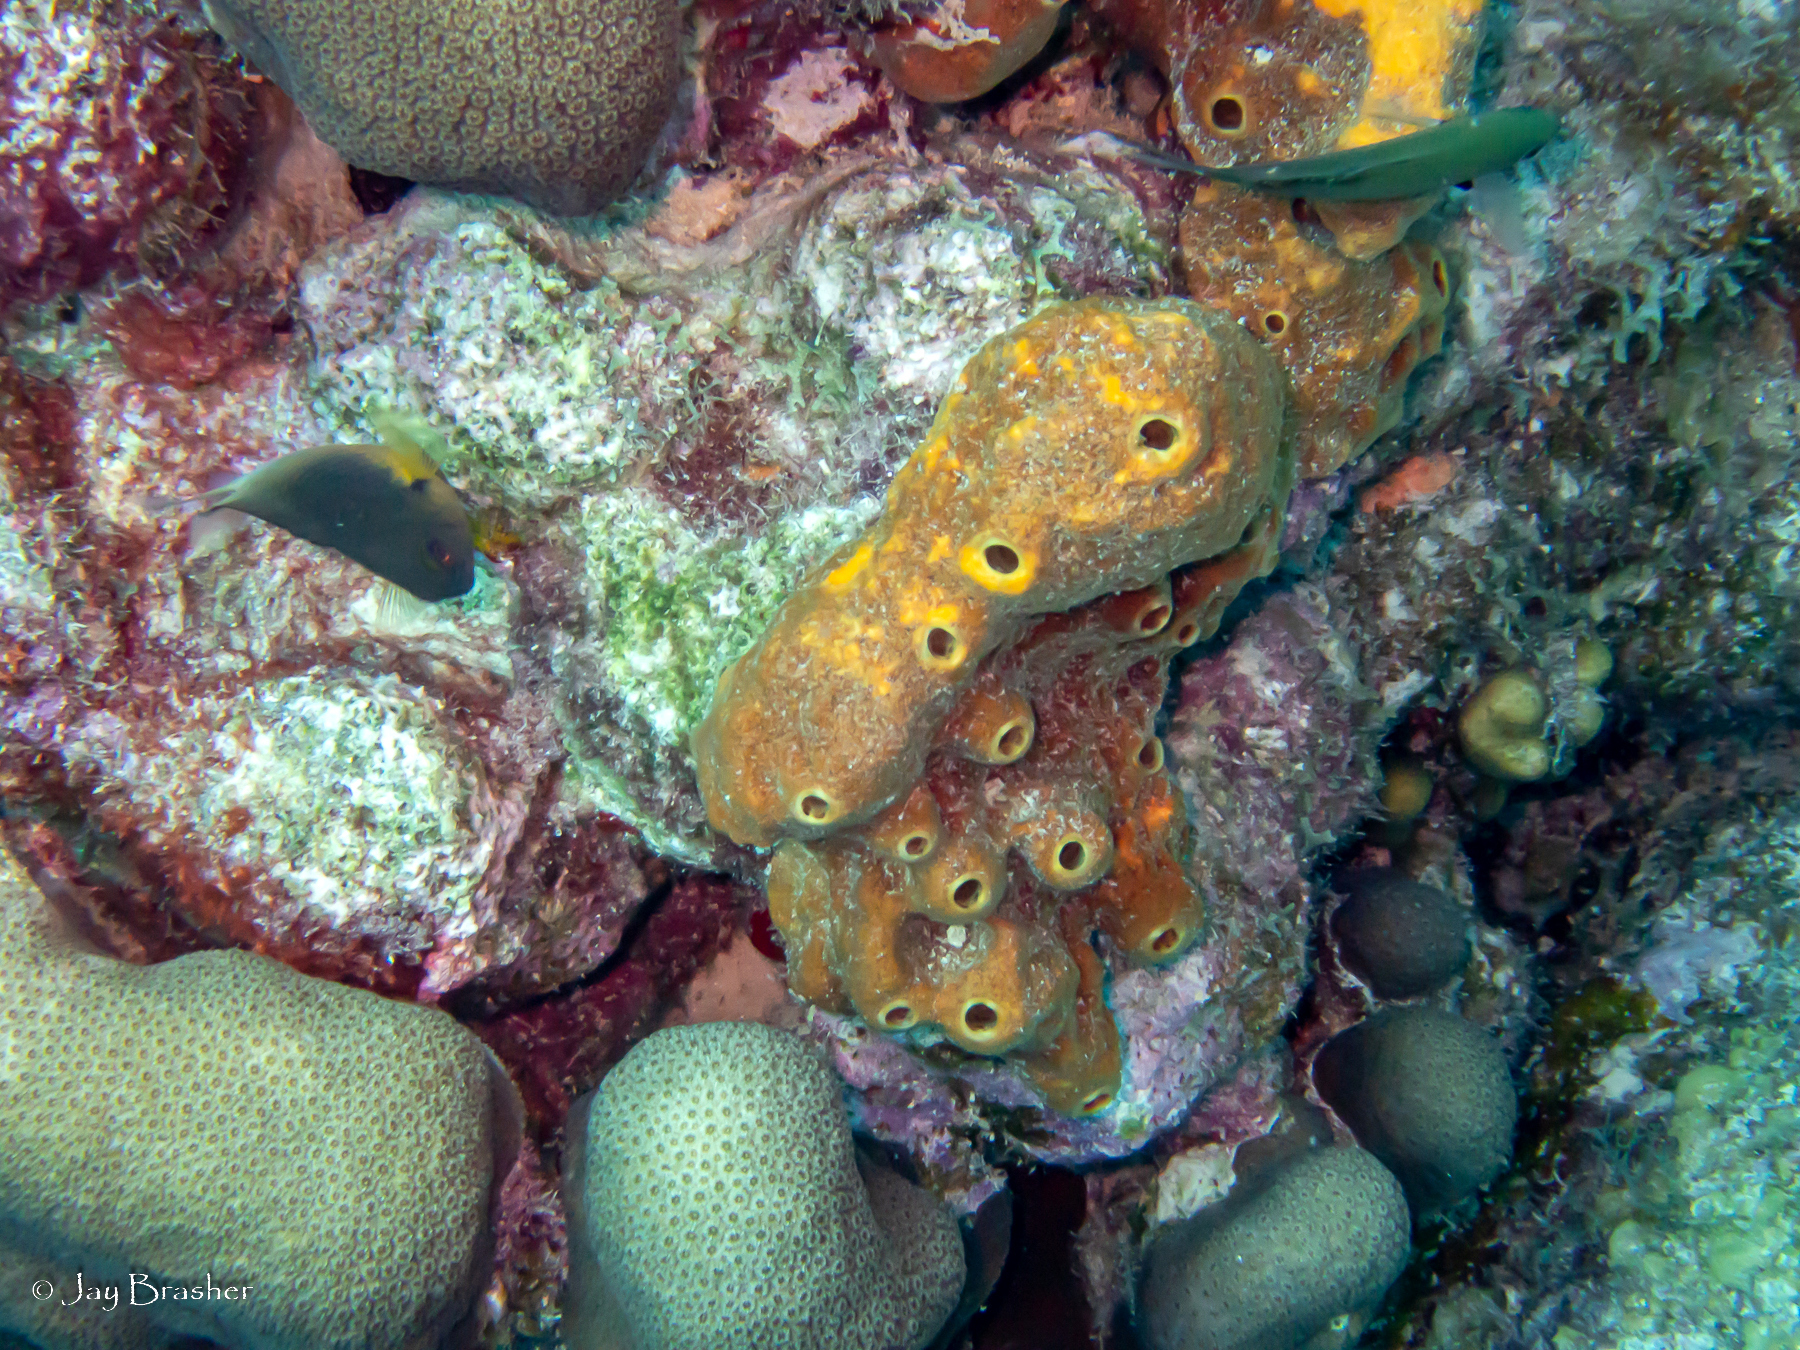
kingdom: Animalia
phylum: Porifera
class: Demospongiae
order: Axinellida
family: Raspailiidae
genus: Ectyoplasia
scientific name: Ectyoplasia ferox
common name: Brown encrusting octopus sponge
